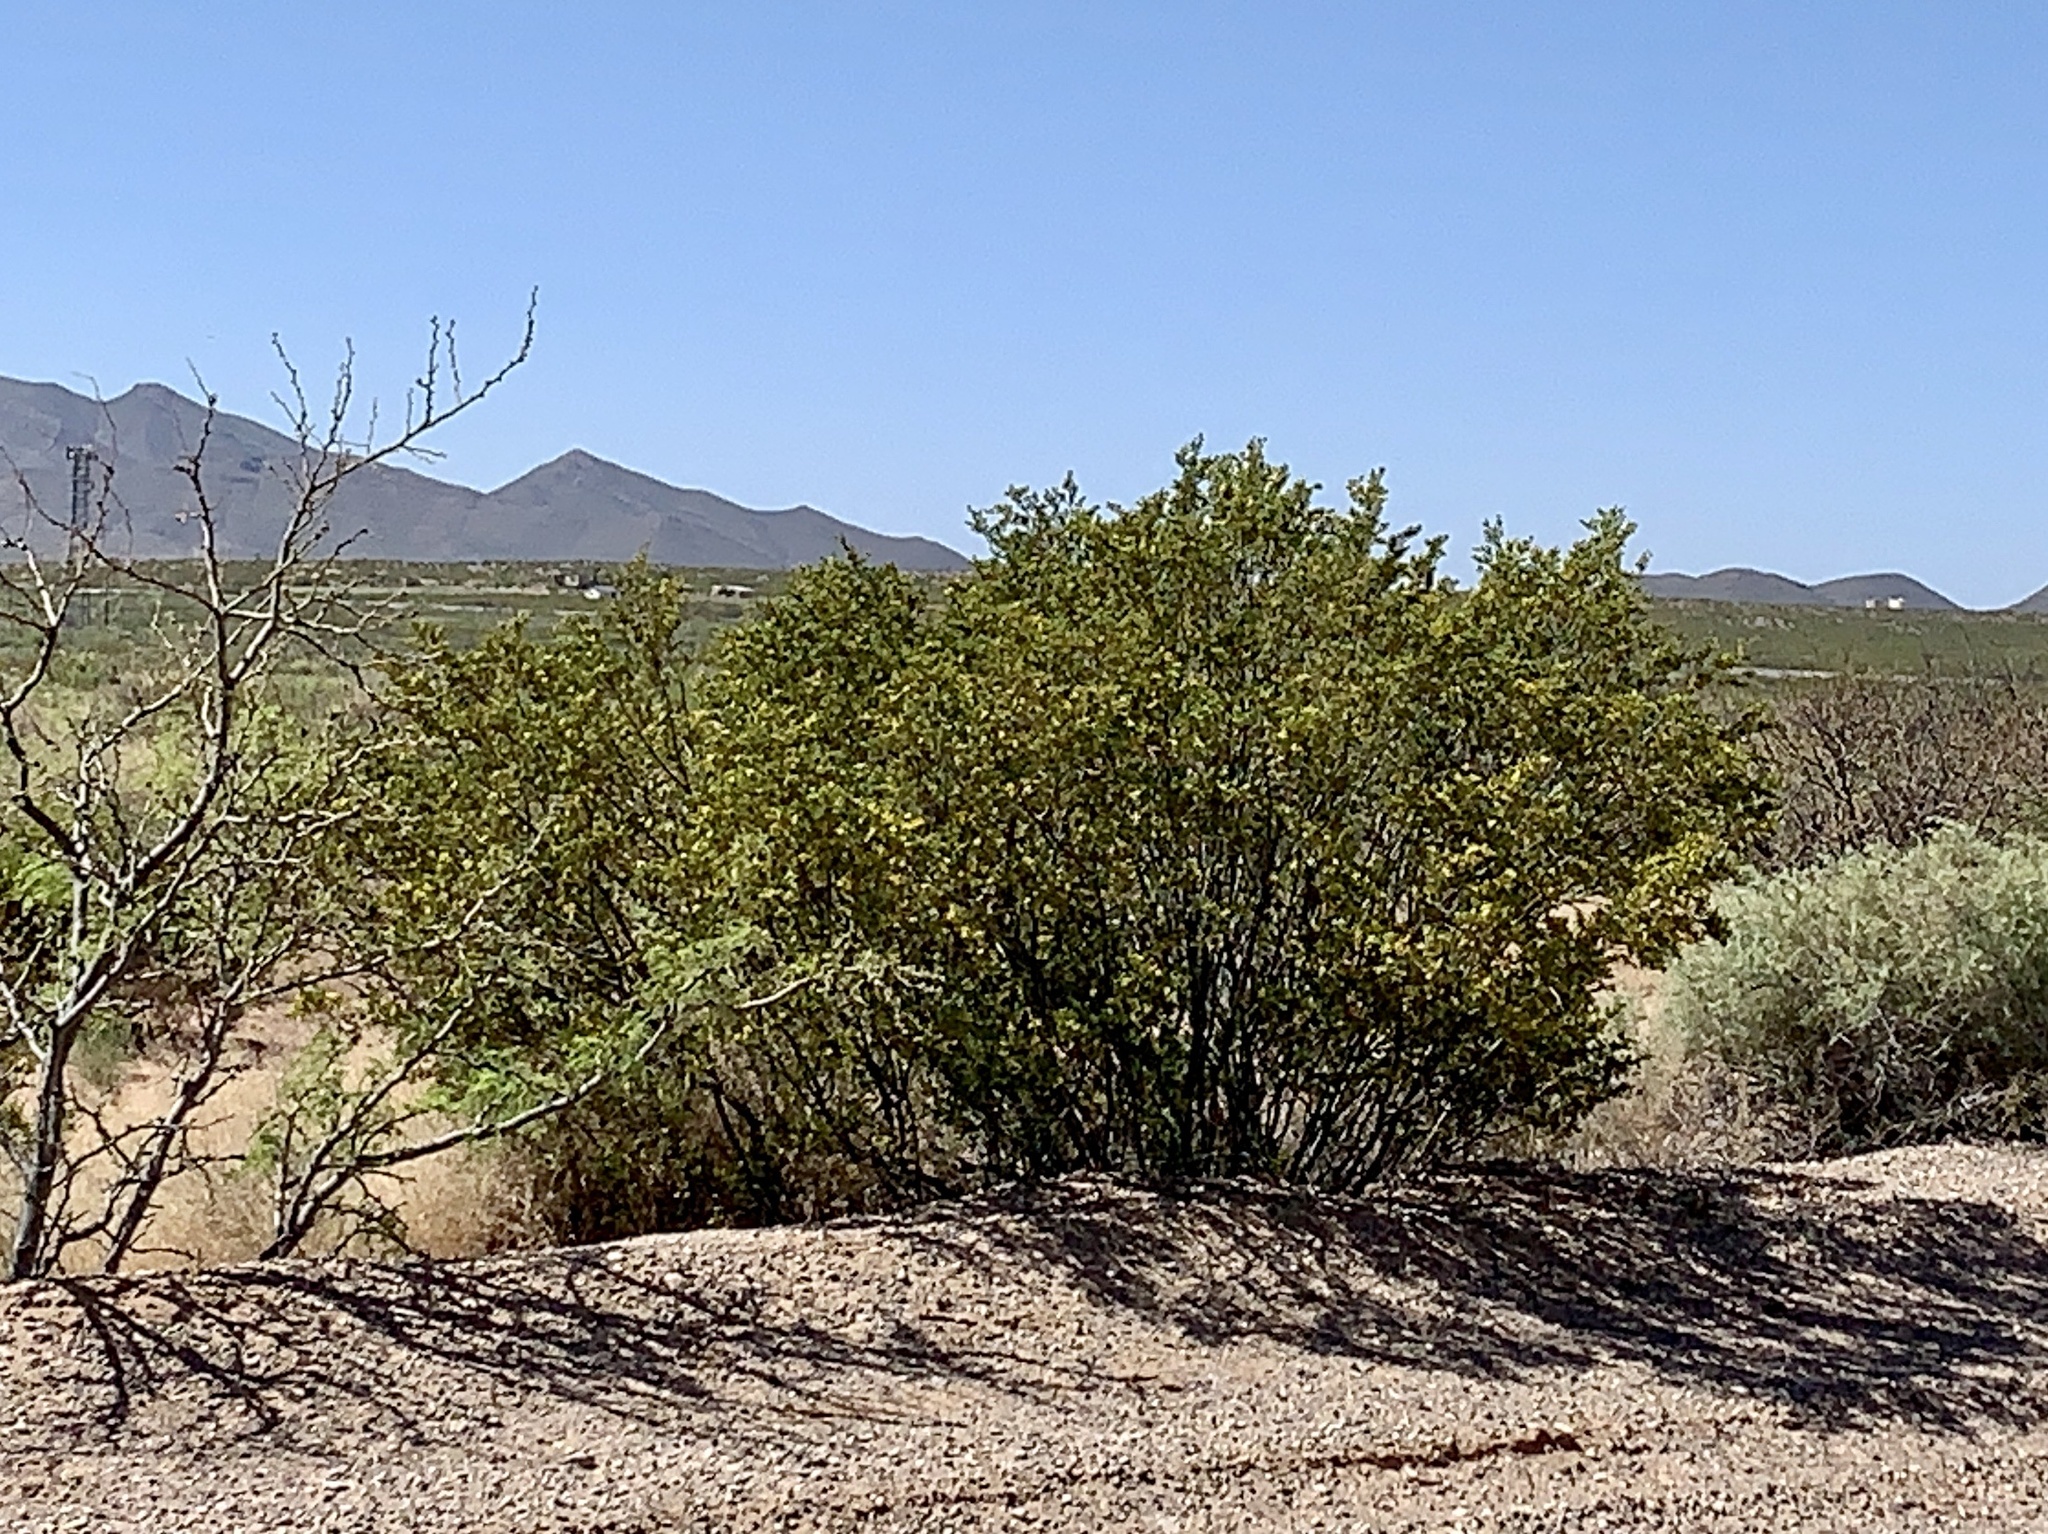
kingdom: Plantae
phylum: Tracheophyta
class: Magnoliopsida
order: Zygophyllales
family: Zygophyllaceae
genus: Larrea
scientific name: Larrea tridentata
